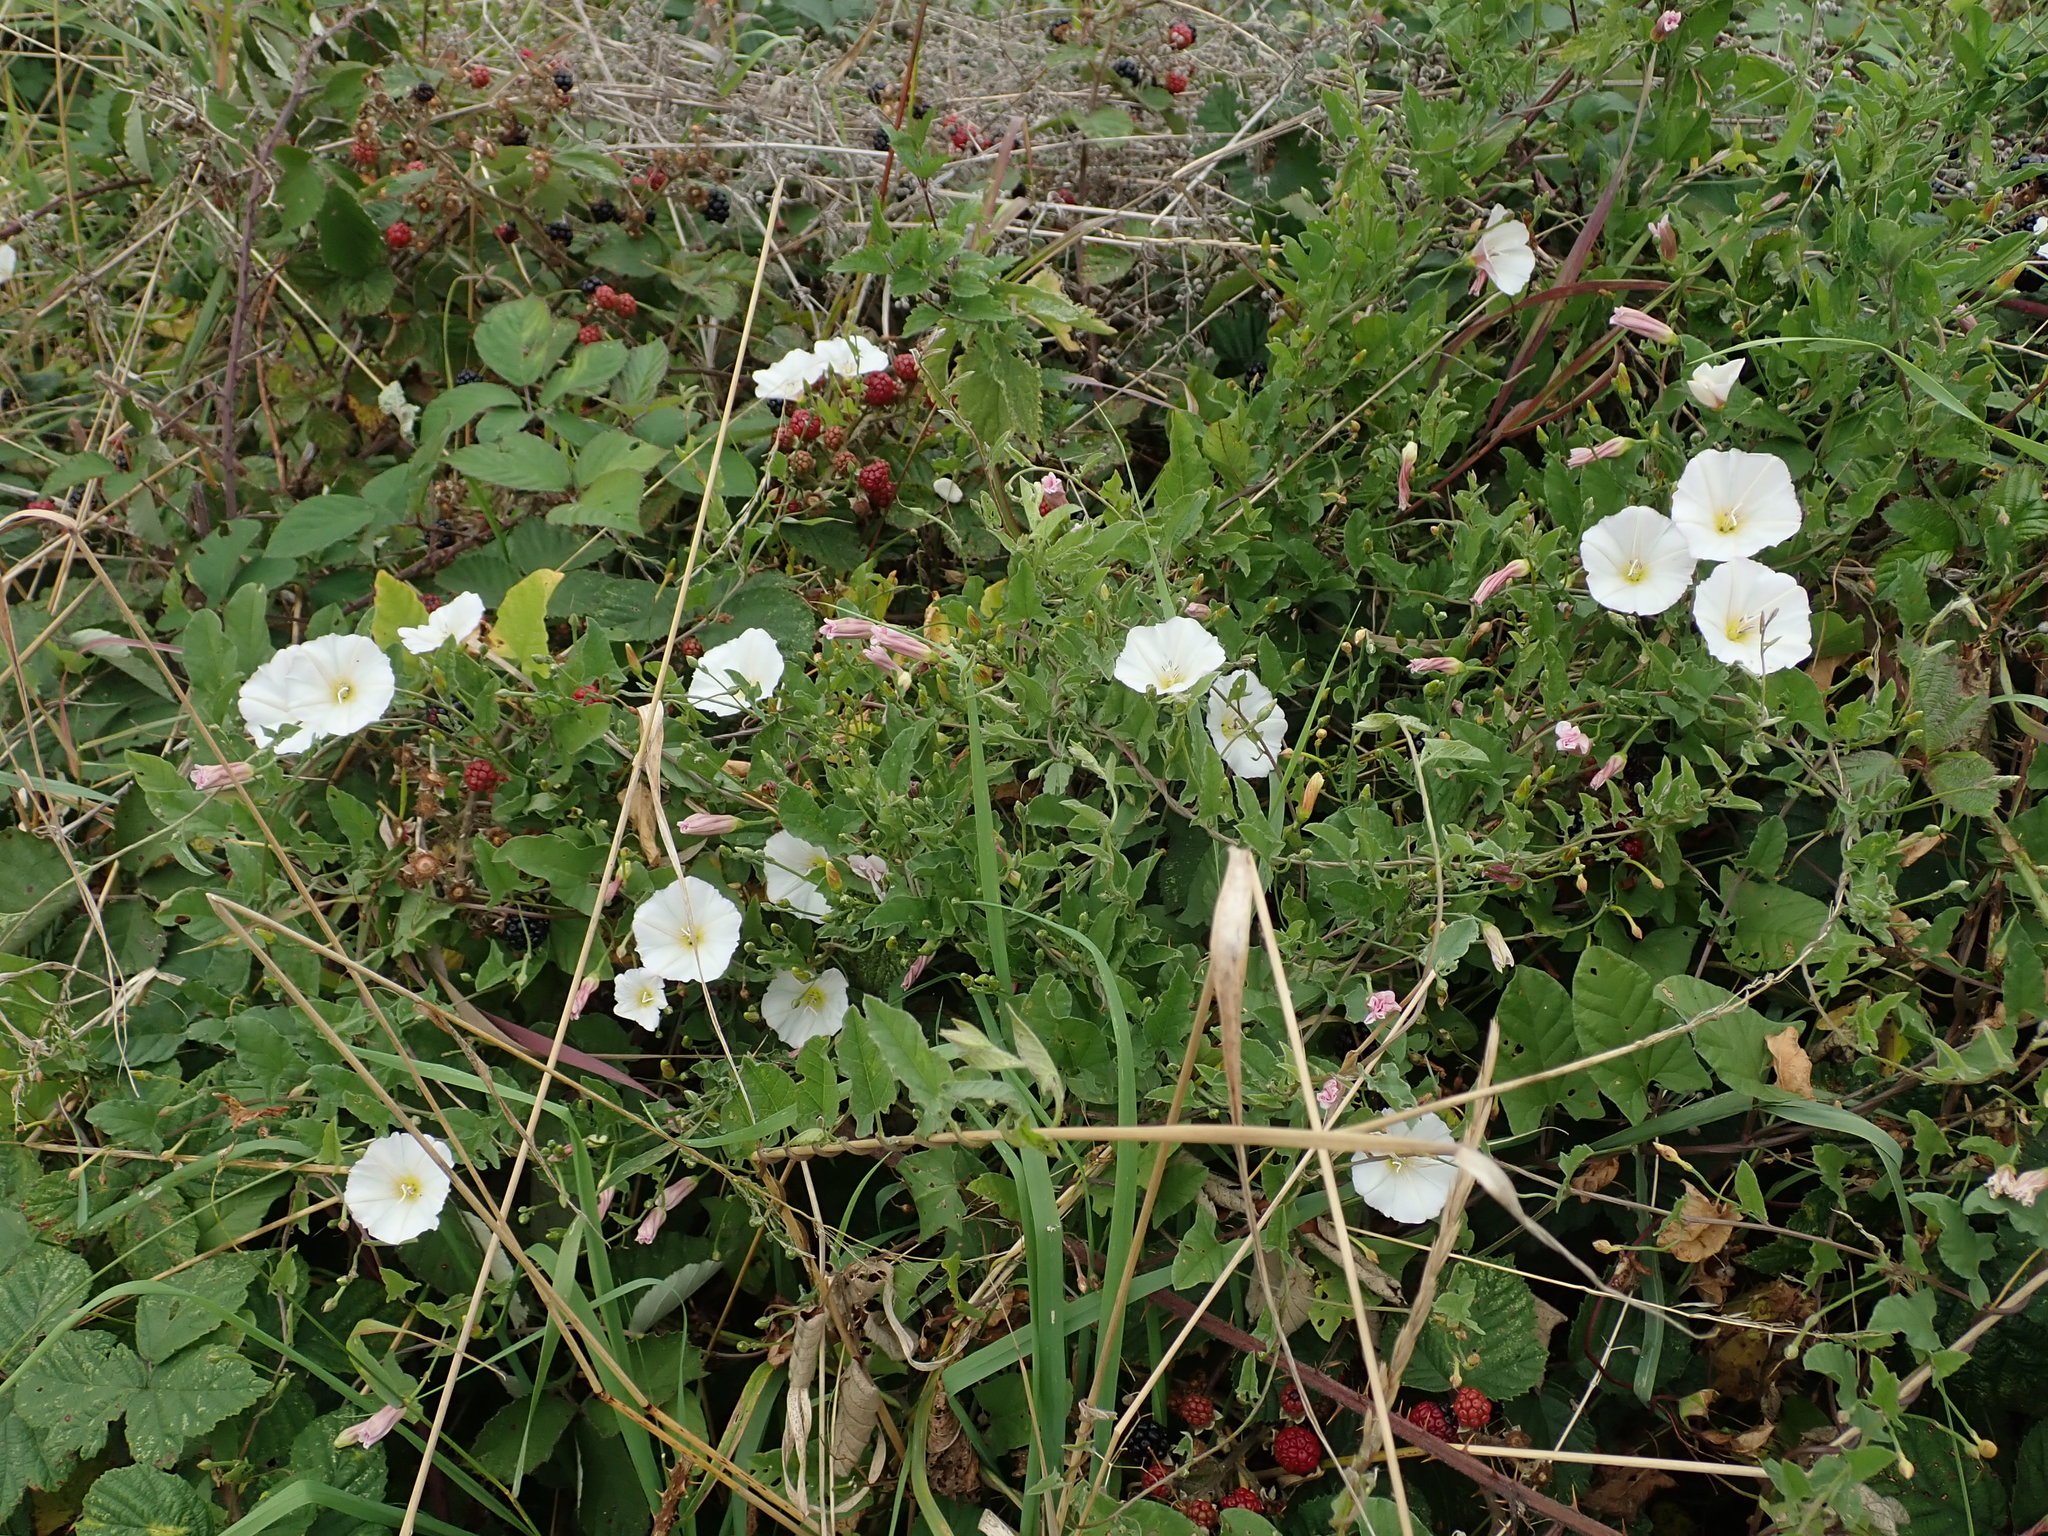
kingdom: Plantae
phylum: Tracheophyta
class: Magnoliopsida
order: Solanales
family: Convolvulaceae
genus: Convolvulus
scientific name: Convolvulus arvensis
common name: Field bindweed
